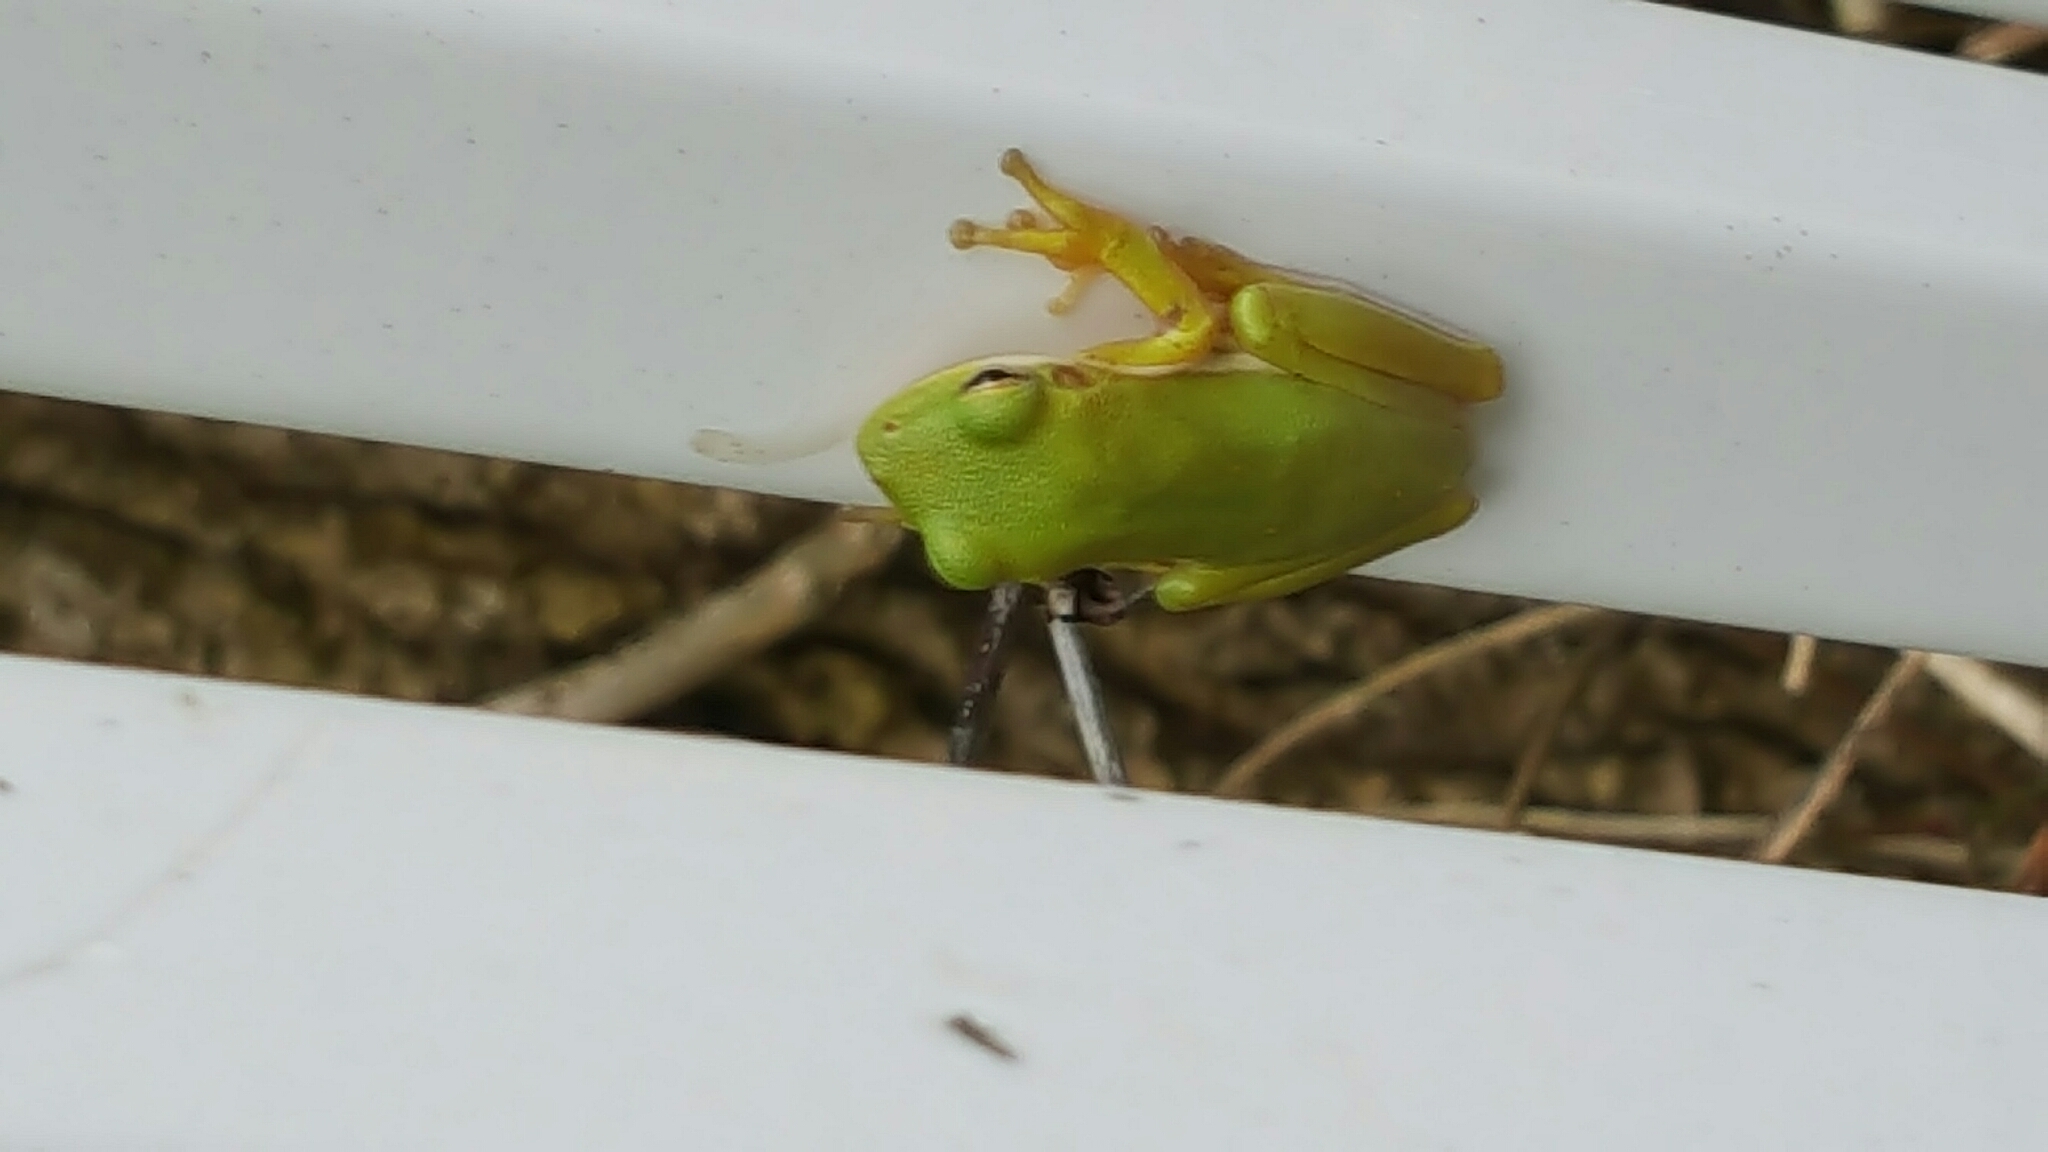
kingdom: Animalia
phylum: Chordata
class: Amphibia
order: Anura
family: Hylidae
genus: Dryophytes
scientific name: Dryophytes cinereus
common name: Green treefrog
